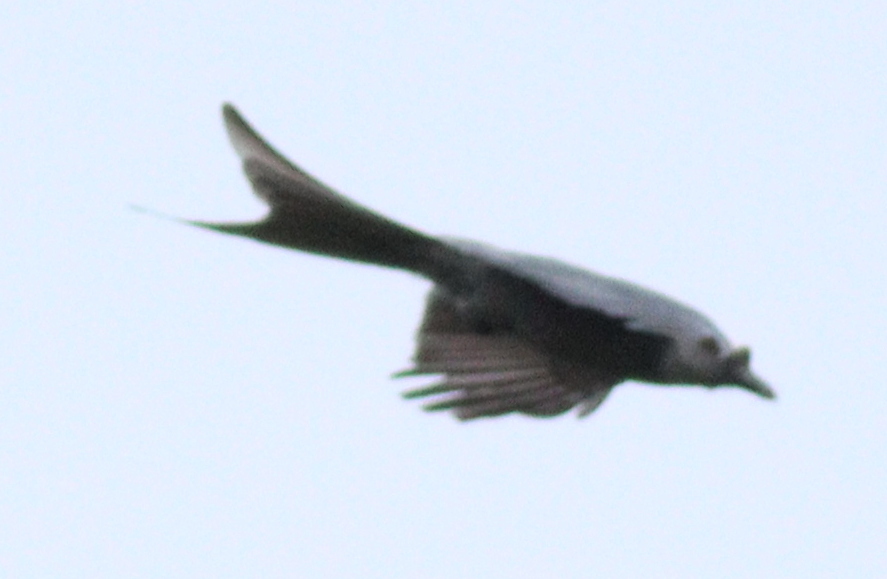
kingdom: Animalia
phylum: Chordata
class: Aves
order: Passeriformes
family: Dicruridae
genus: Dicrurus
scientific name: Dicrurus leucophaeus
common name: Ashy drongo
